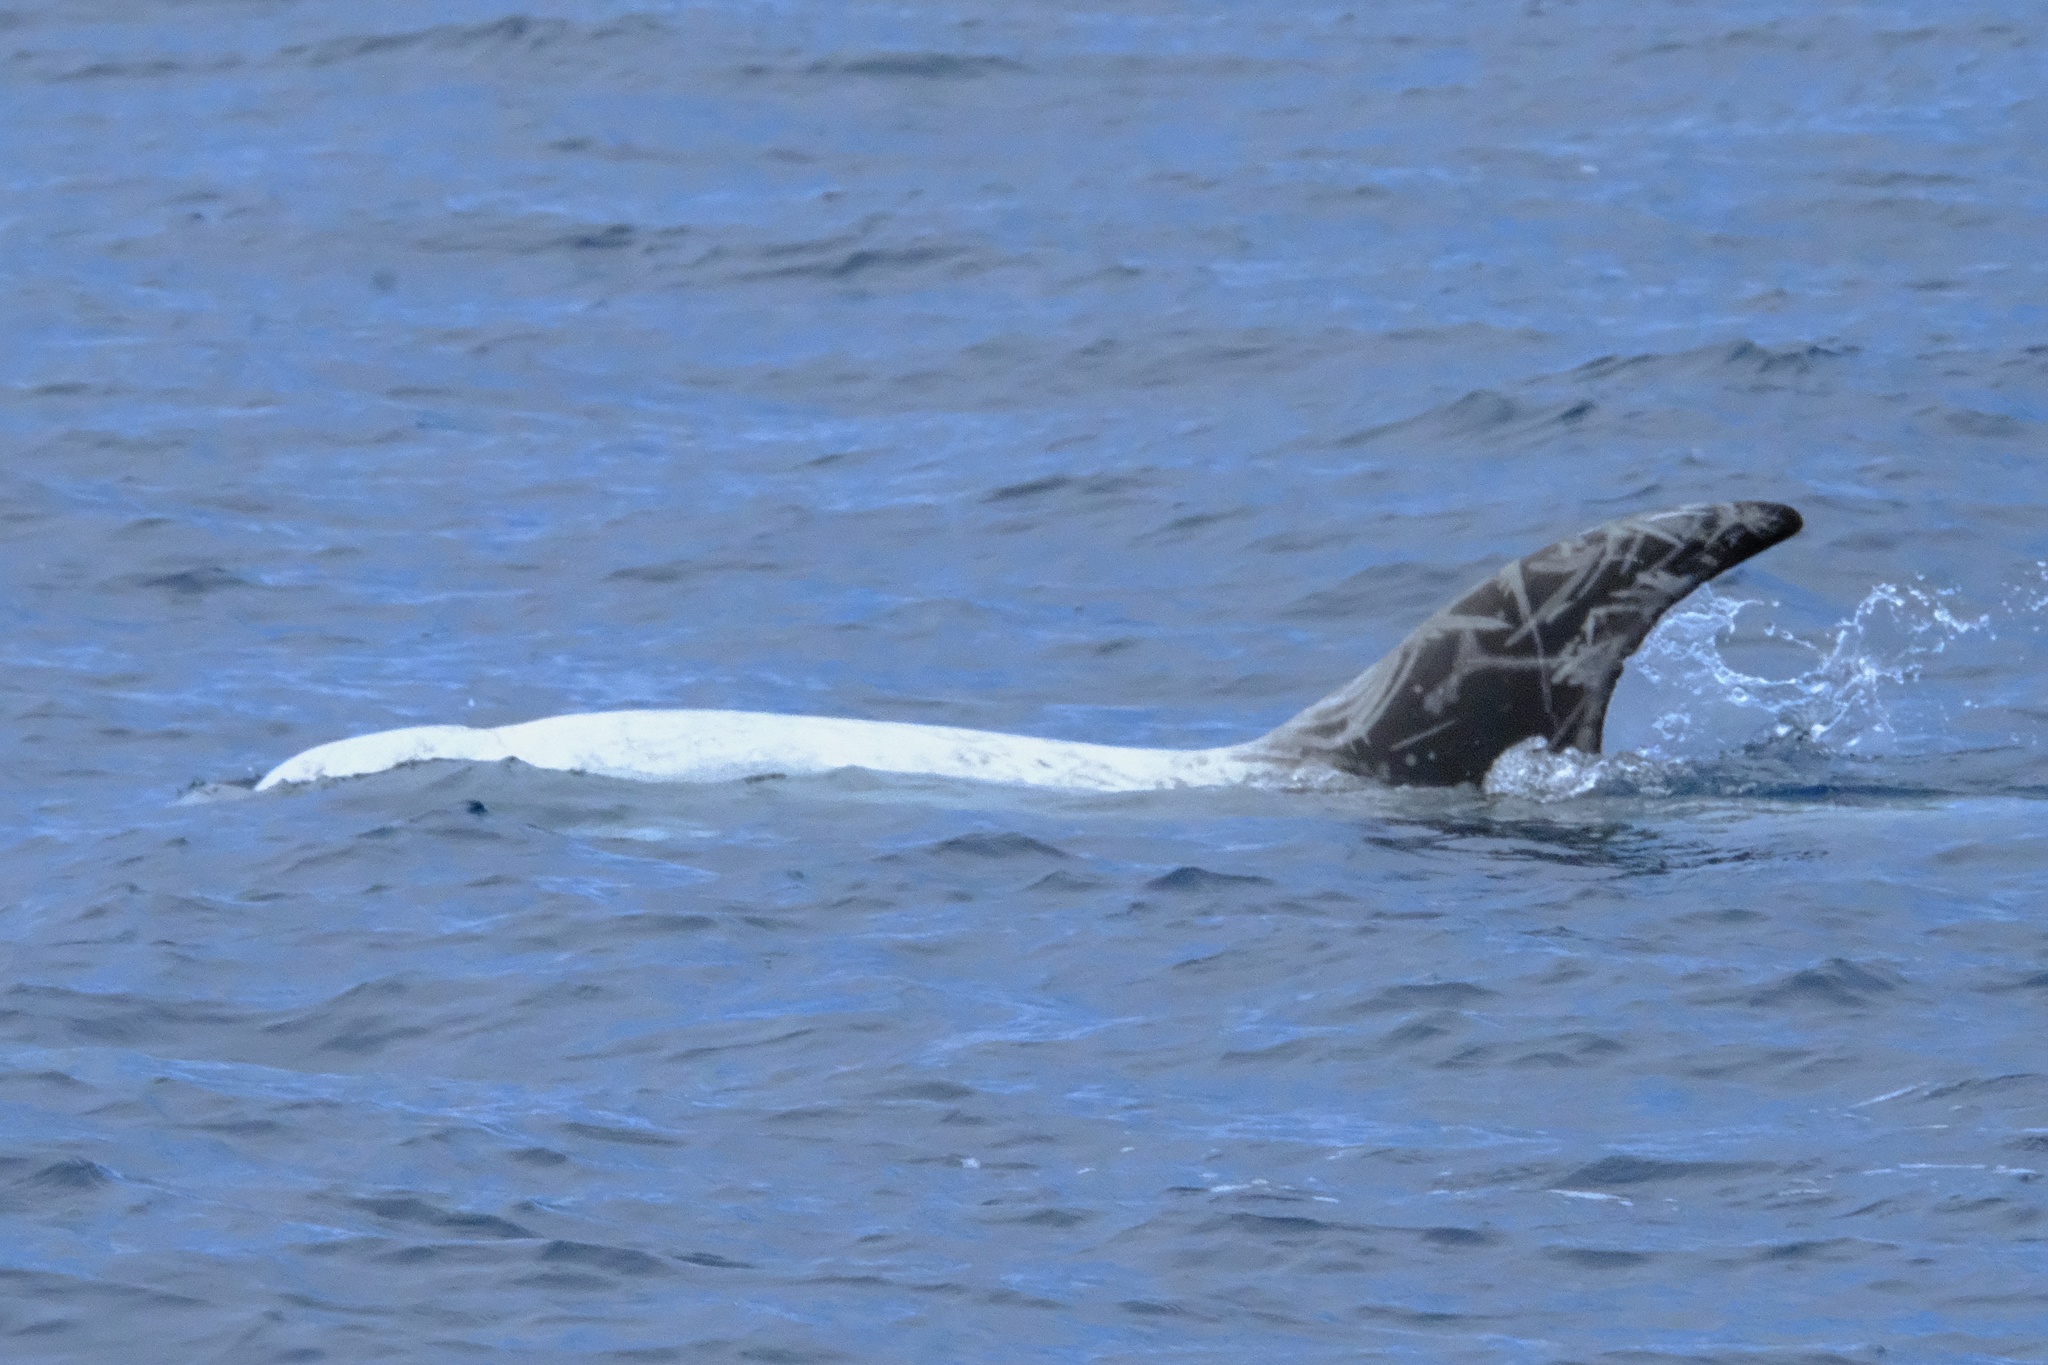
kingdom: Animalia
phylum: Chordata
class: Mammalia
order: Cetacea
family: Delphinidae
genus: Grampus
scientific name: Grampus griseus
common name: Risso's dolphin
